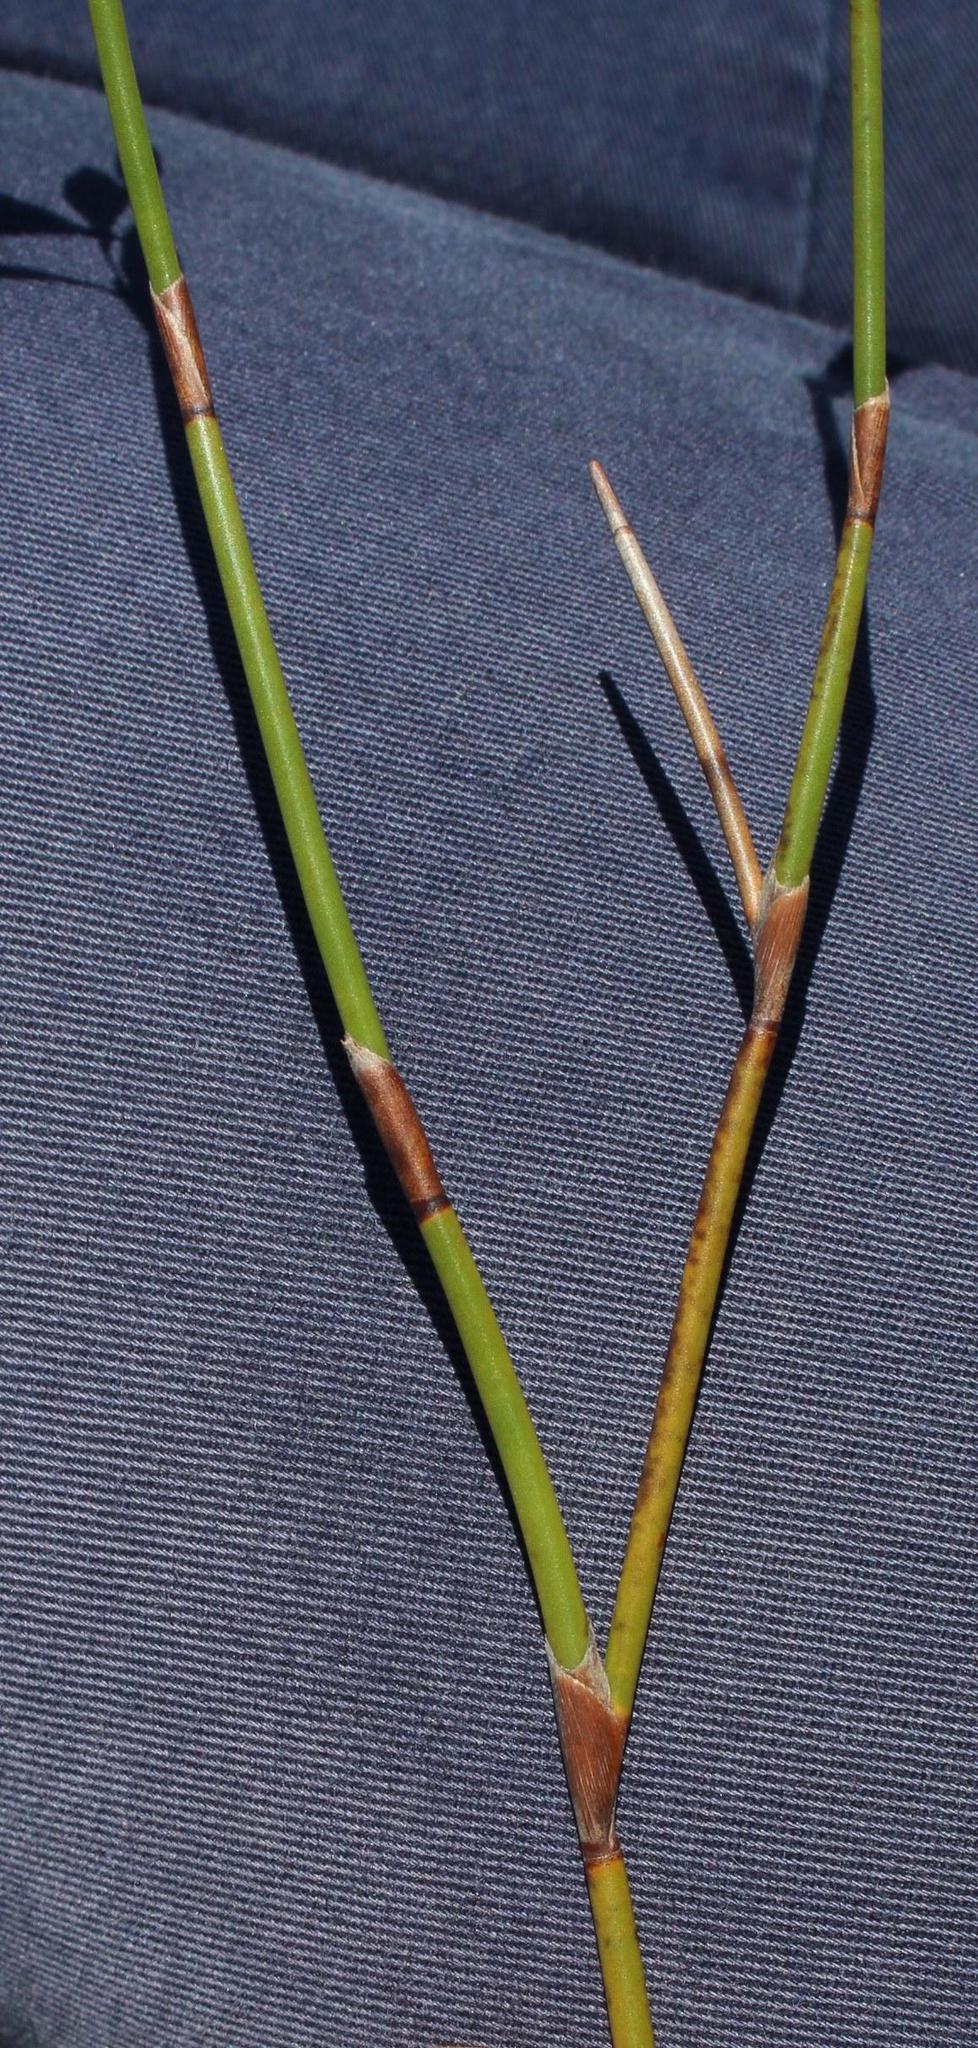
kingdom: Plantae
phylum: Tracheophyta
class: Liliopsida
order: Poales
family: Restionaceae
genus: Restio
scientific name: Restio egregius
